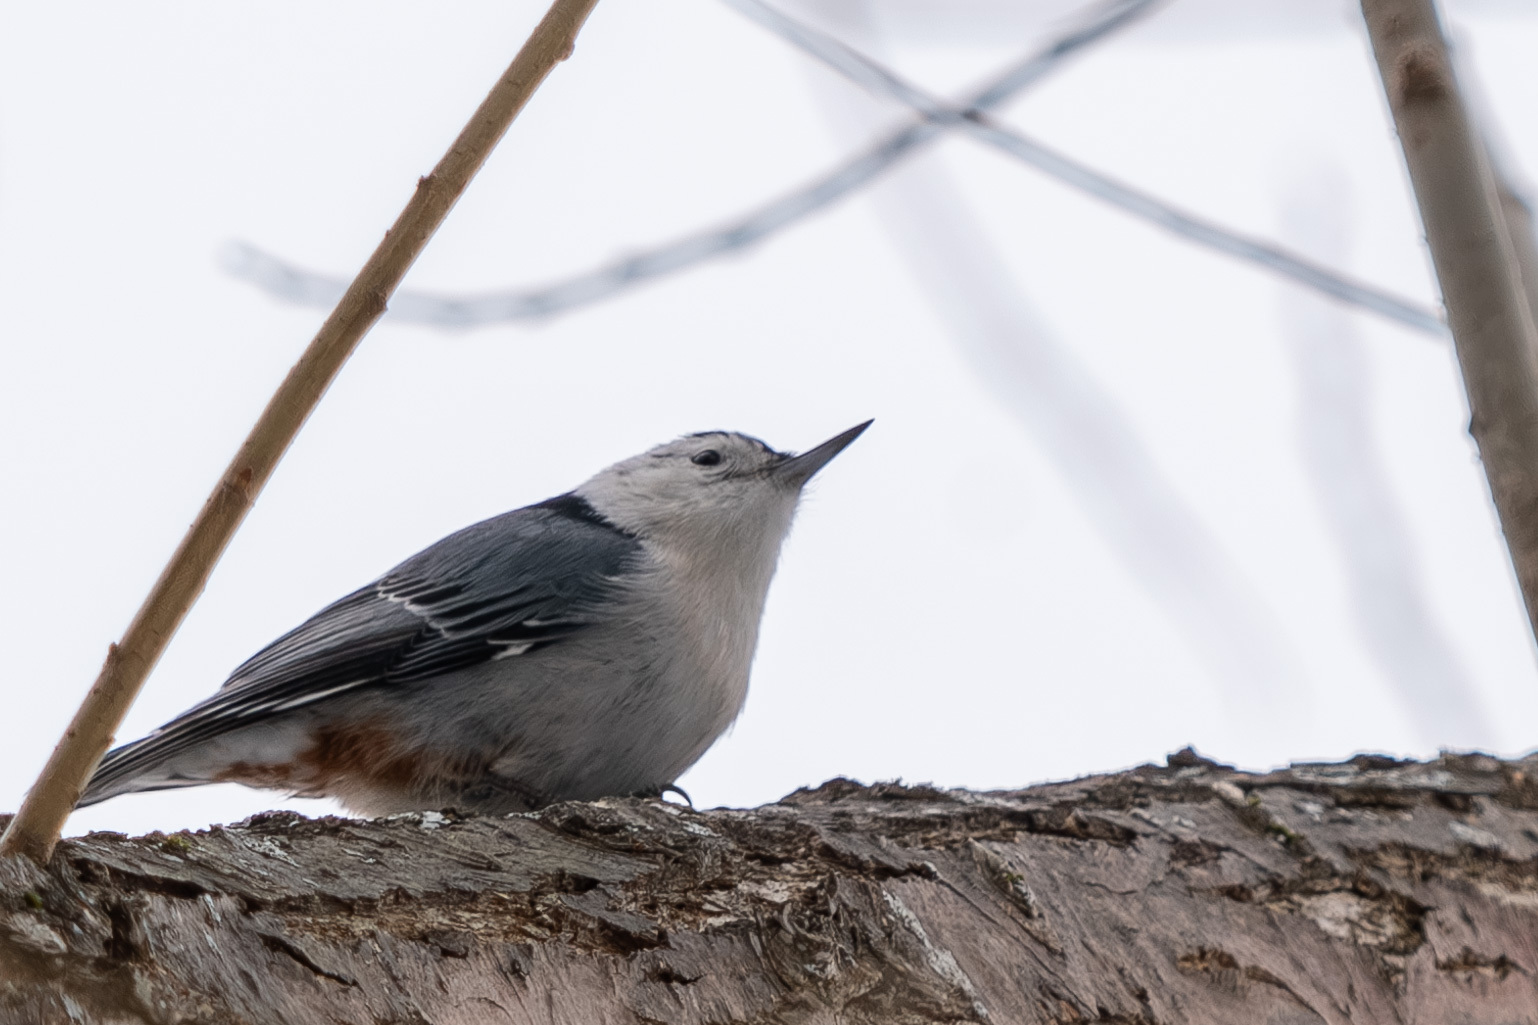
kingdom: Animalia
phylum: Chordata
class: Aves
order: Passeriformes
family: Sittidae
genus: Sitta
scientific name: Sitta carolinensis
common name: White-breasted nuthatch
